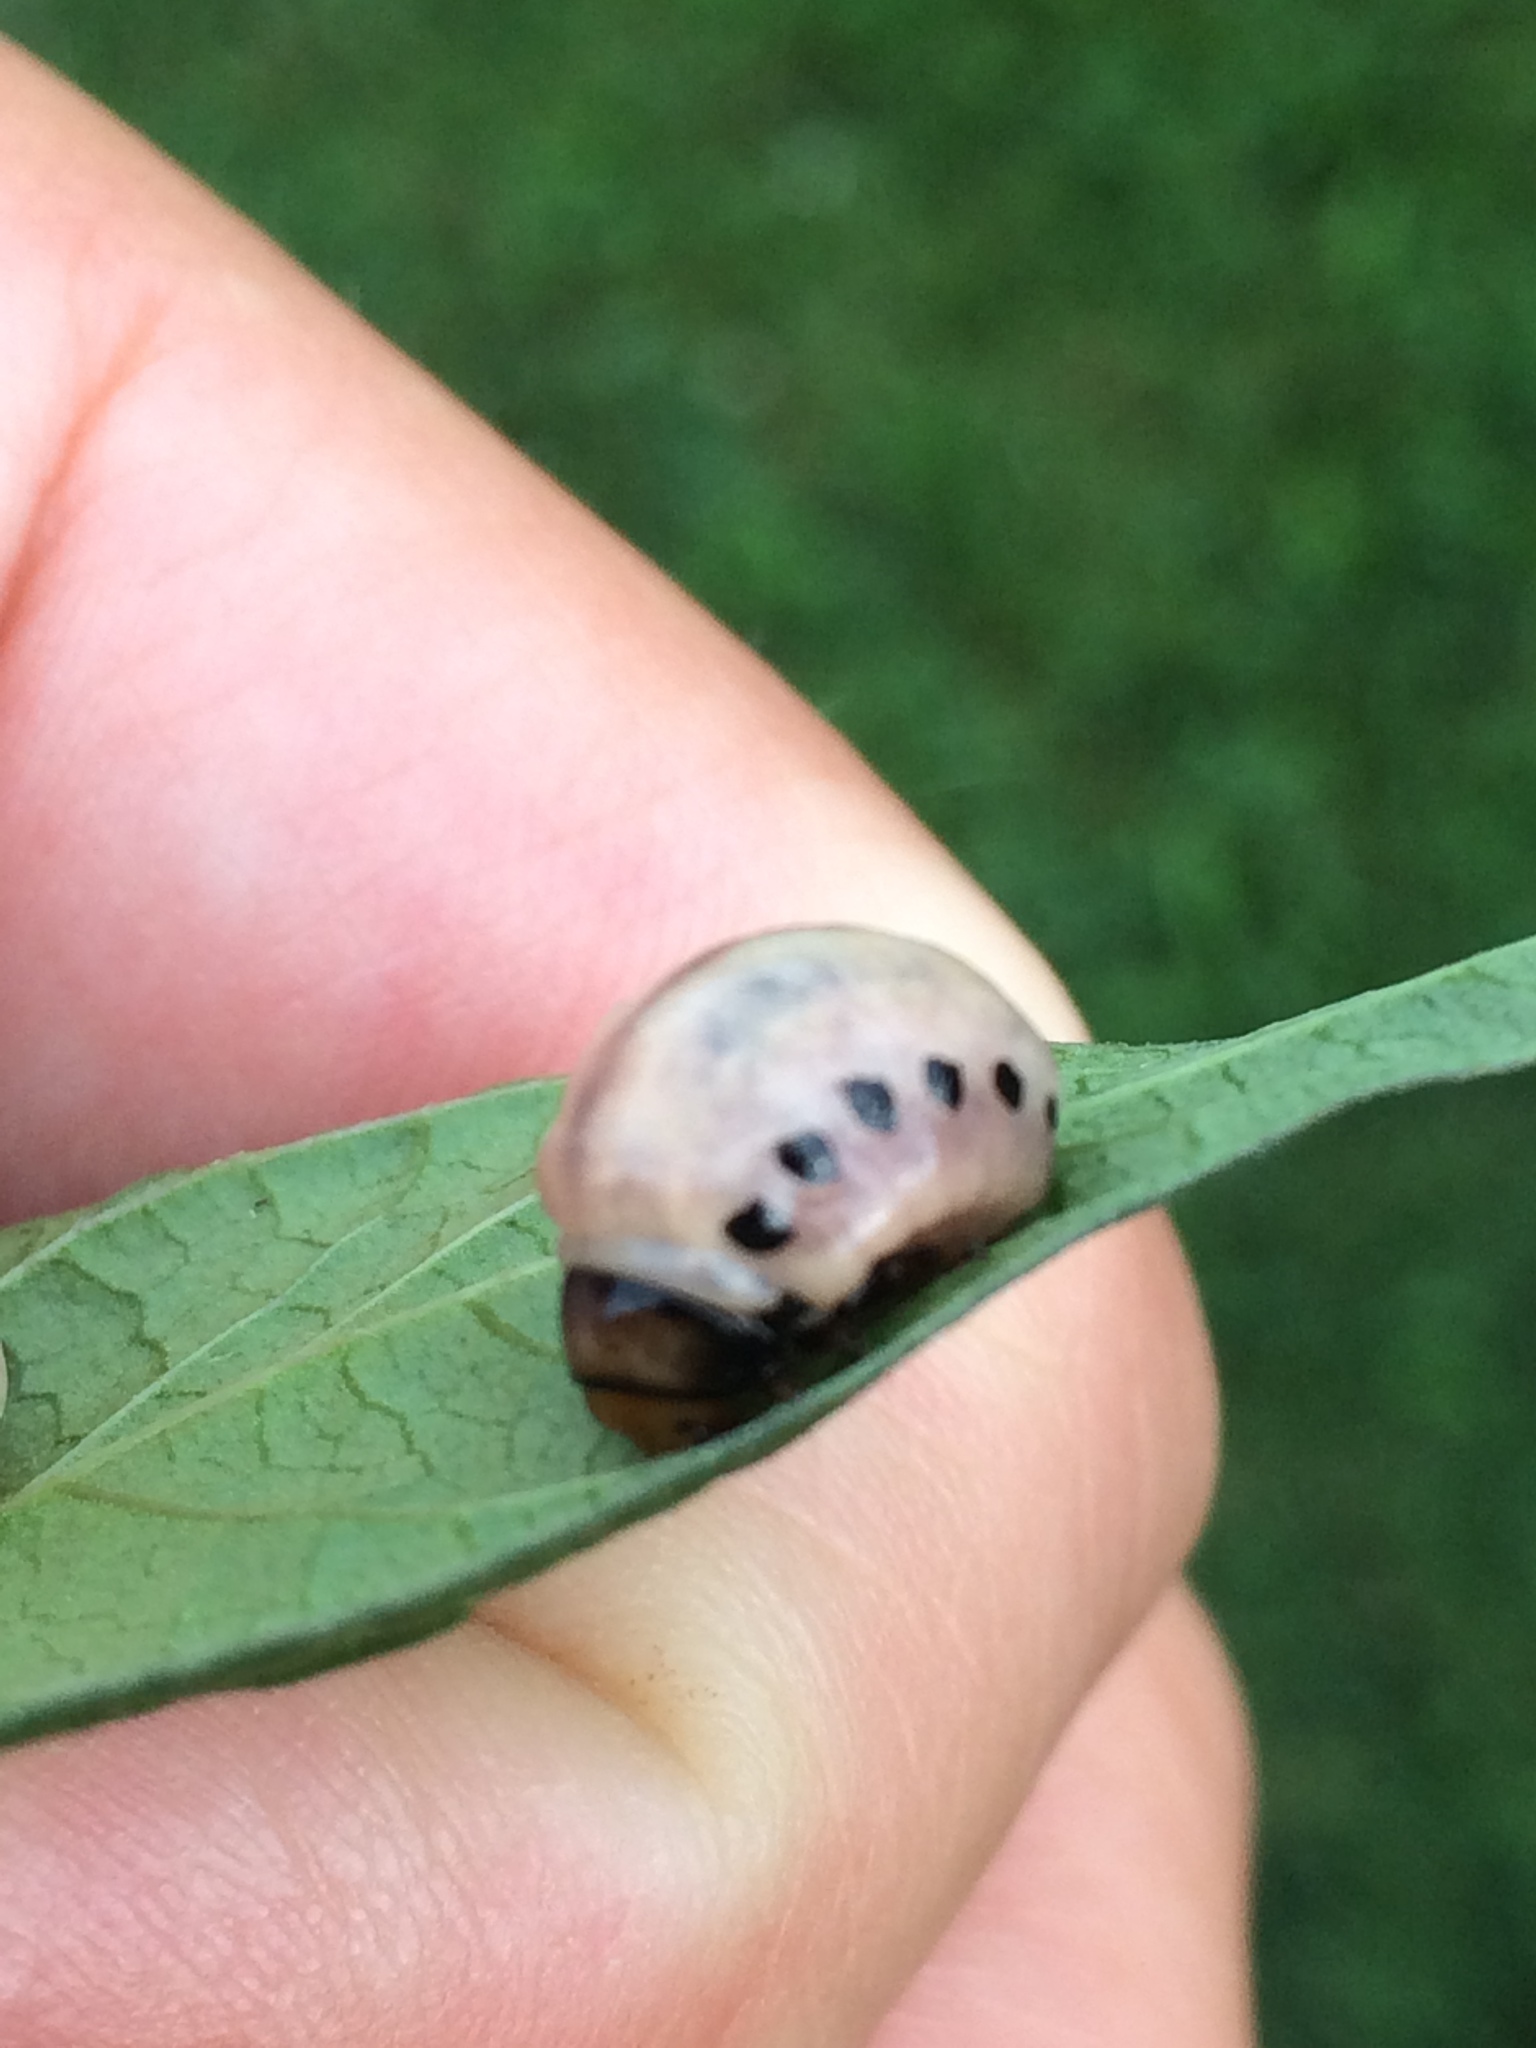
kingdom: Animalia
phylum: Arthropoda
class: Insecta
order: Coleoptera
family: Chrysomelidae
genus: Leptinotarsa
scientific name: Leptinotarsa juncta
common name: False potato beetle
